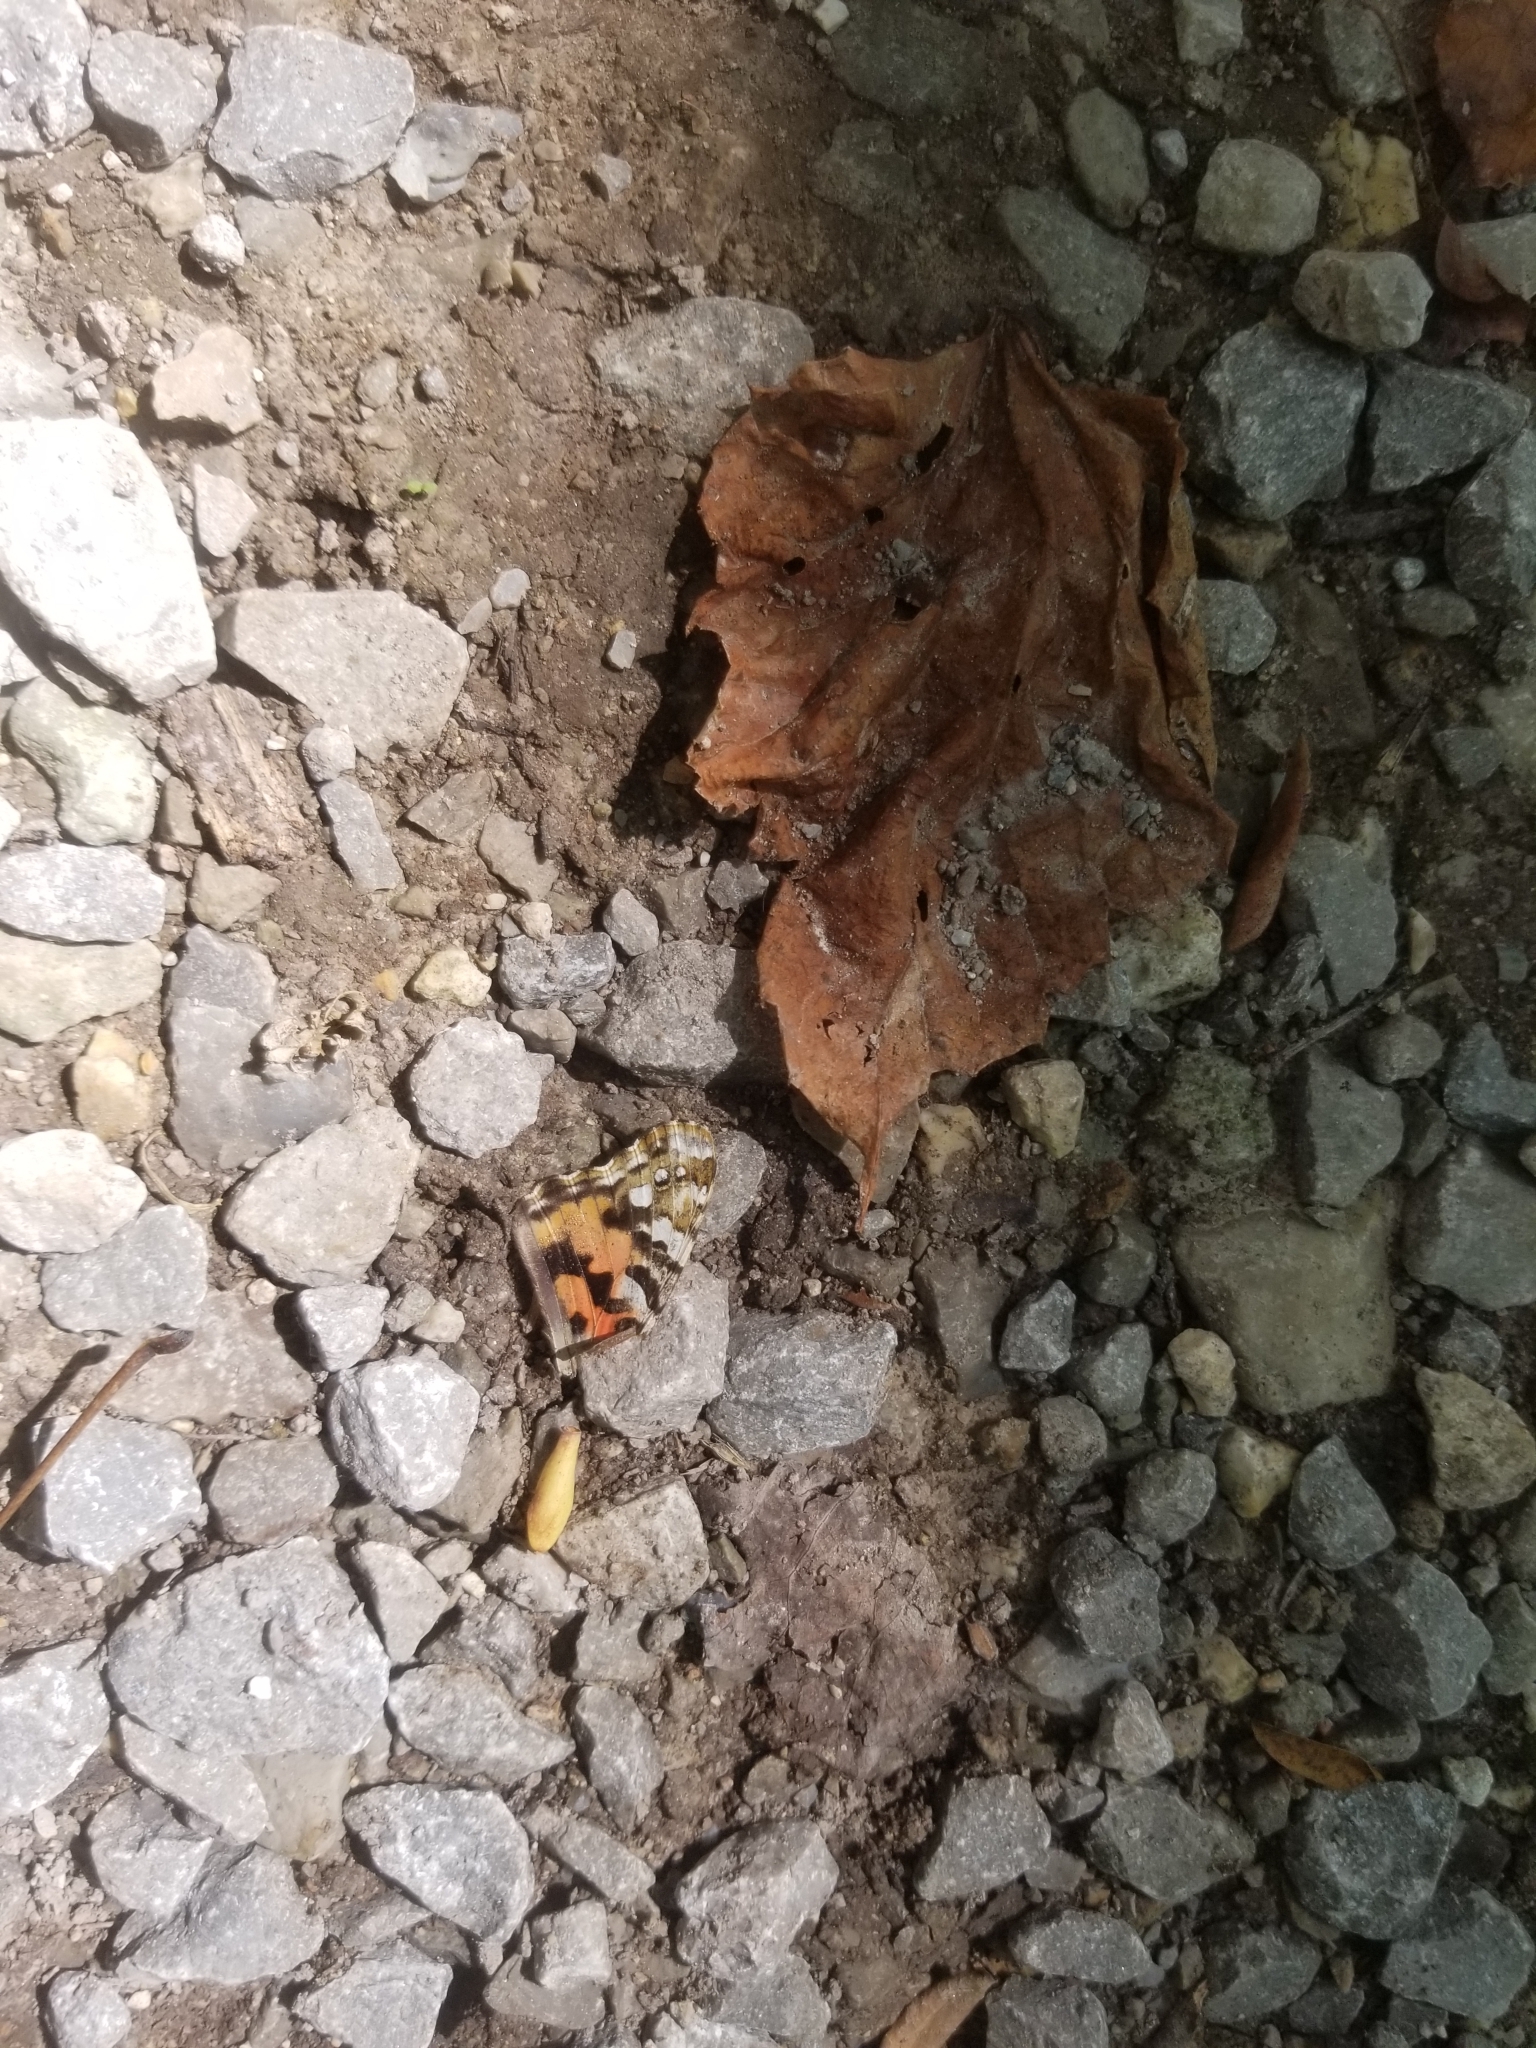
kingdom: Animalia
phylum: Arthropoda
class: Insecta
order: Lepidoptera
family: Nymphalidae
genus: Vanessa
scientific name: Vanessa cardui
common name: Painted lady
